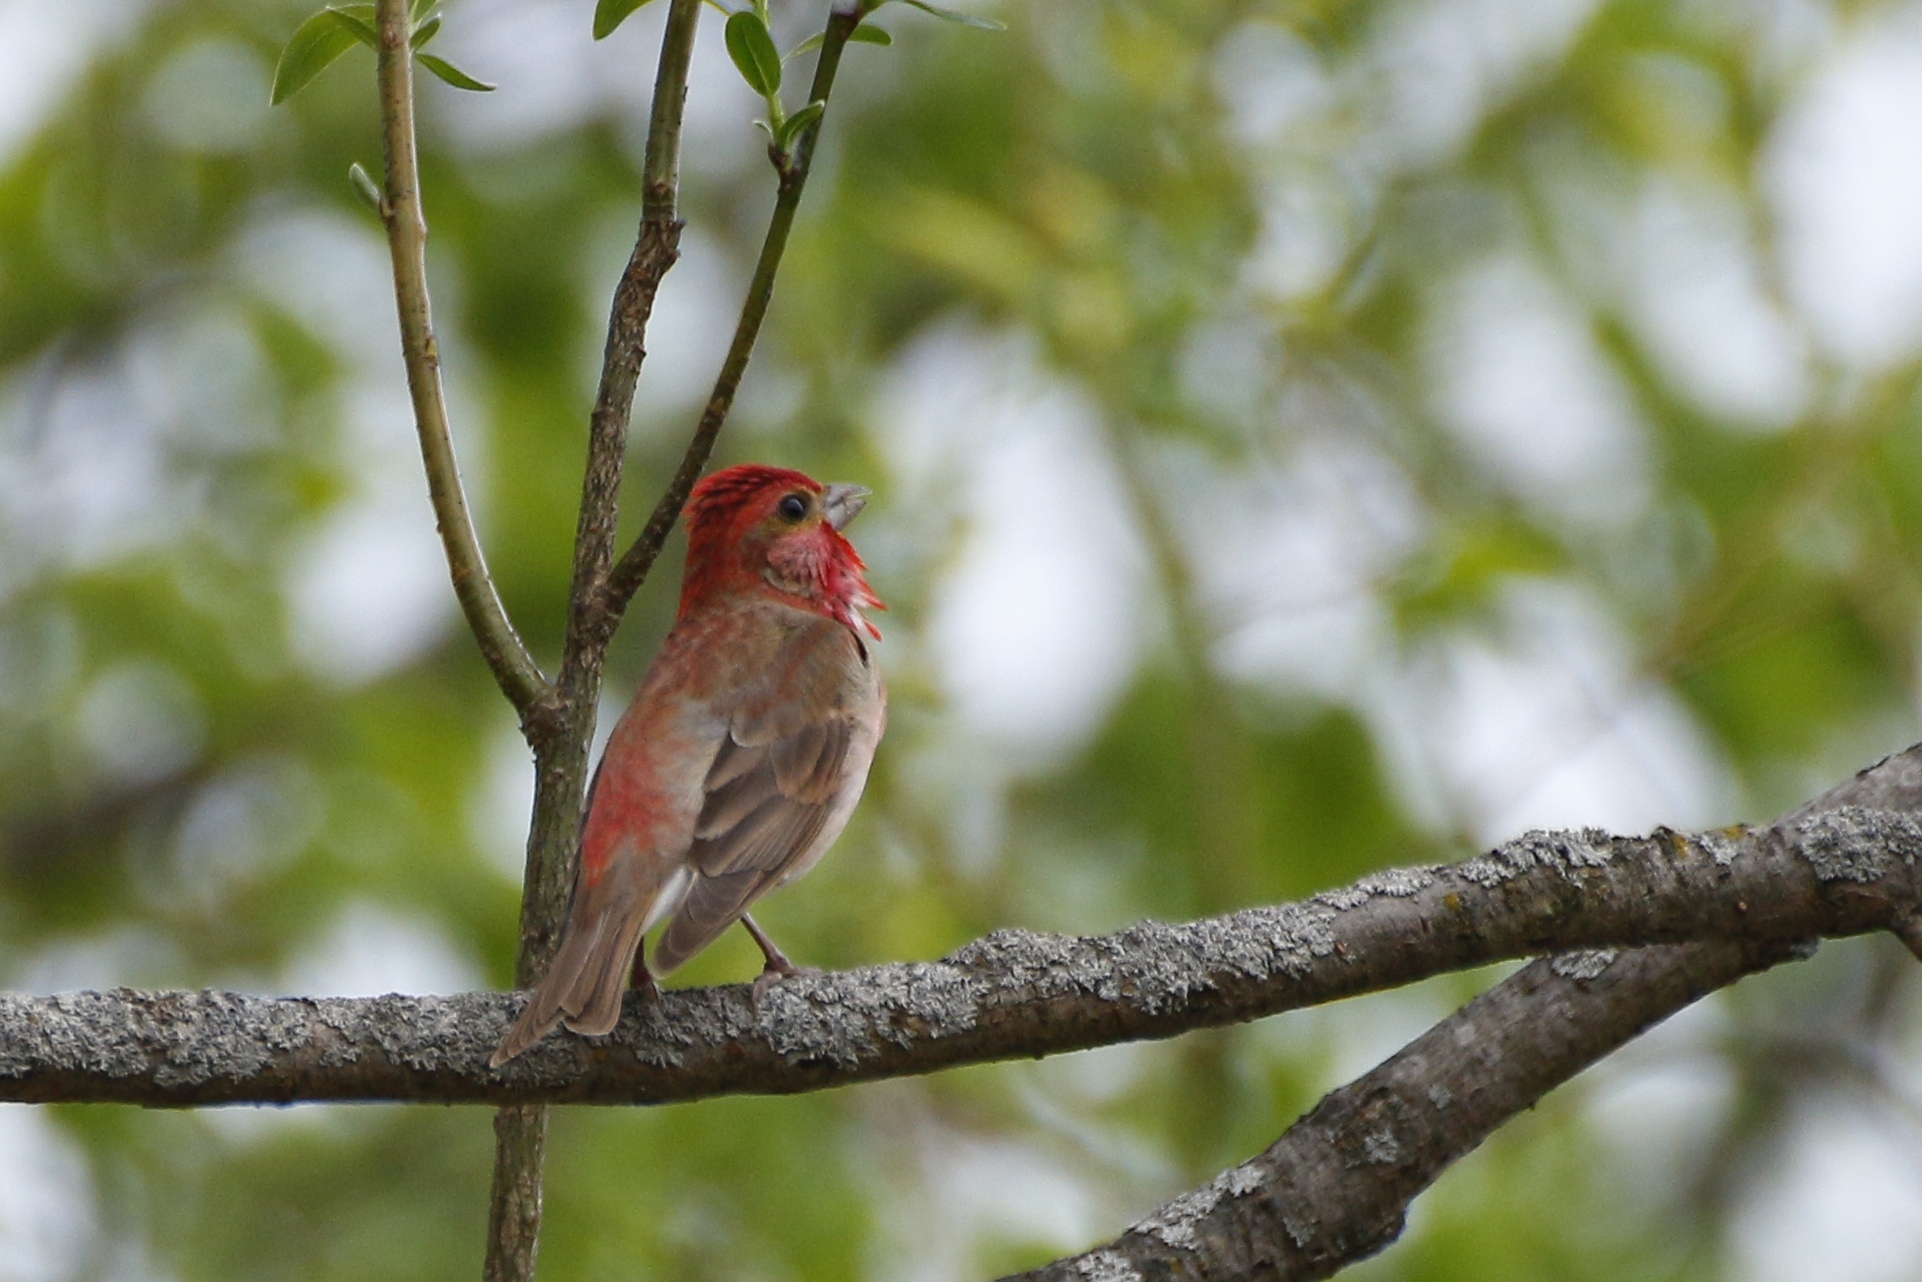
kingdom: Animalia
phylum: Chordata
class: Aves
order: Passeriformes
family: Fringillidae
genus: Carpodacus
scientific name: Carpodacus erythrinus
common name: Common rosefinch
